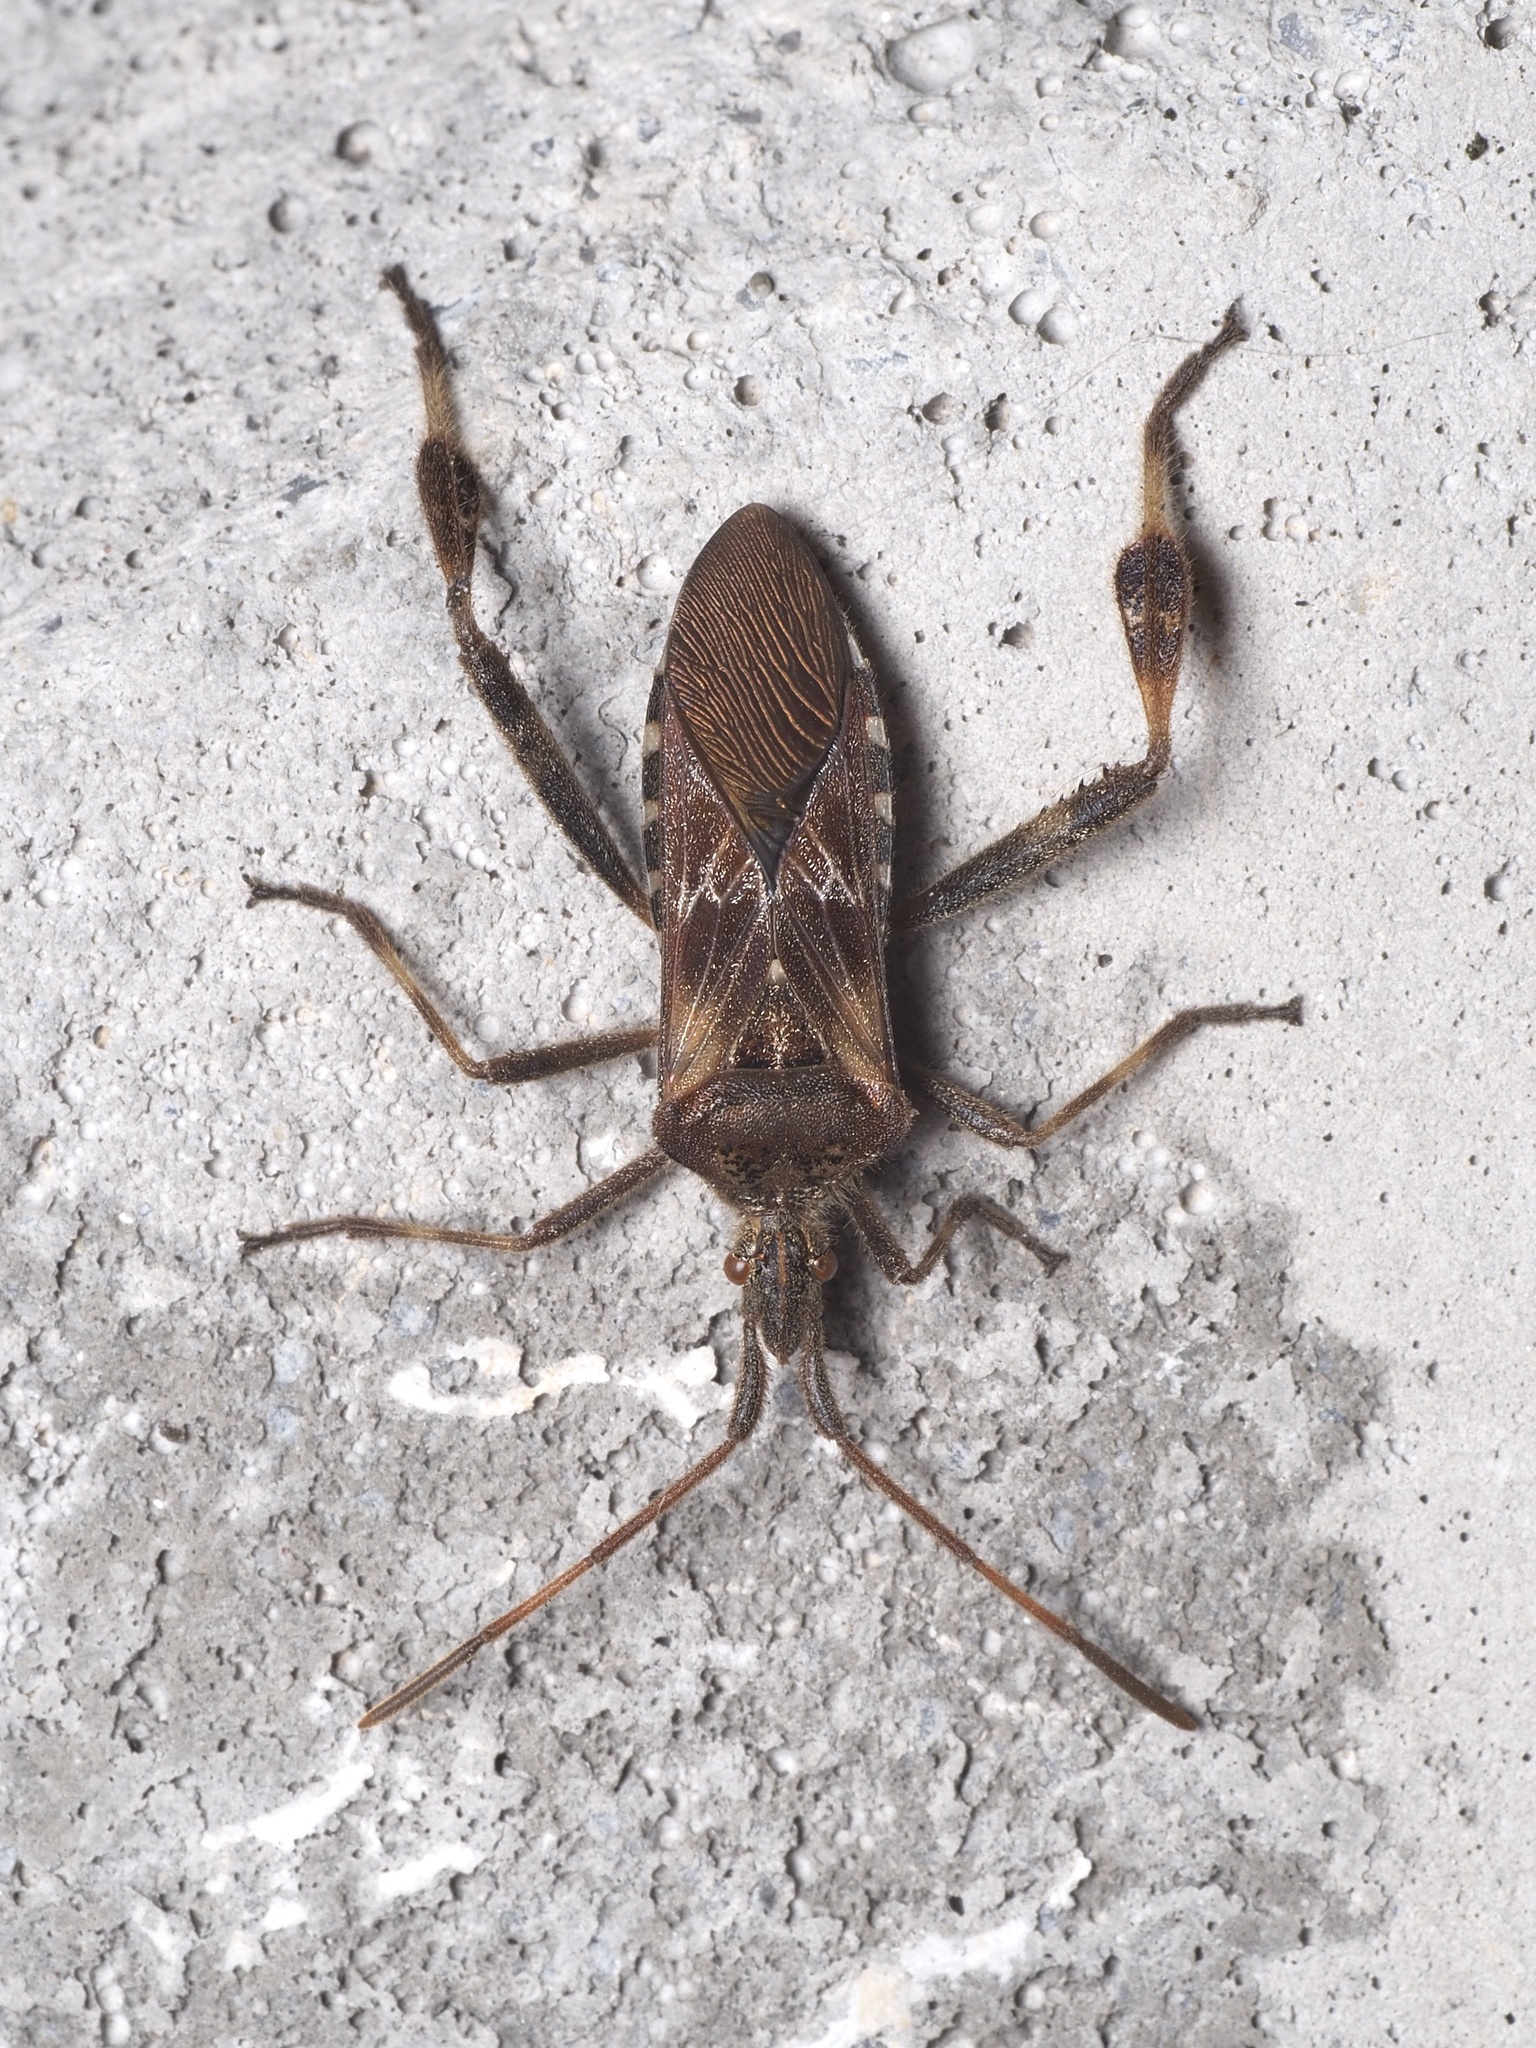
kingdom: Animalia
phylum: Arthropoda
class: Insecta
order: Hemiptera
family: Coreidae
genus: Leptoglossus
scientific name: Leptoglossus occidentalis
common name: Western conifer-seed bug
